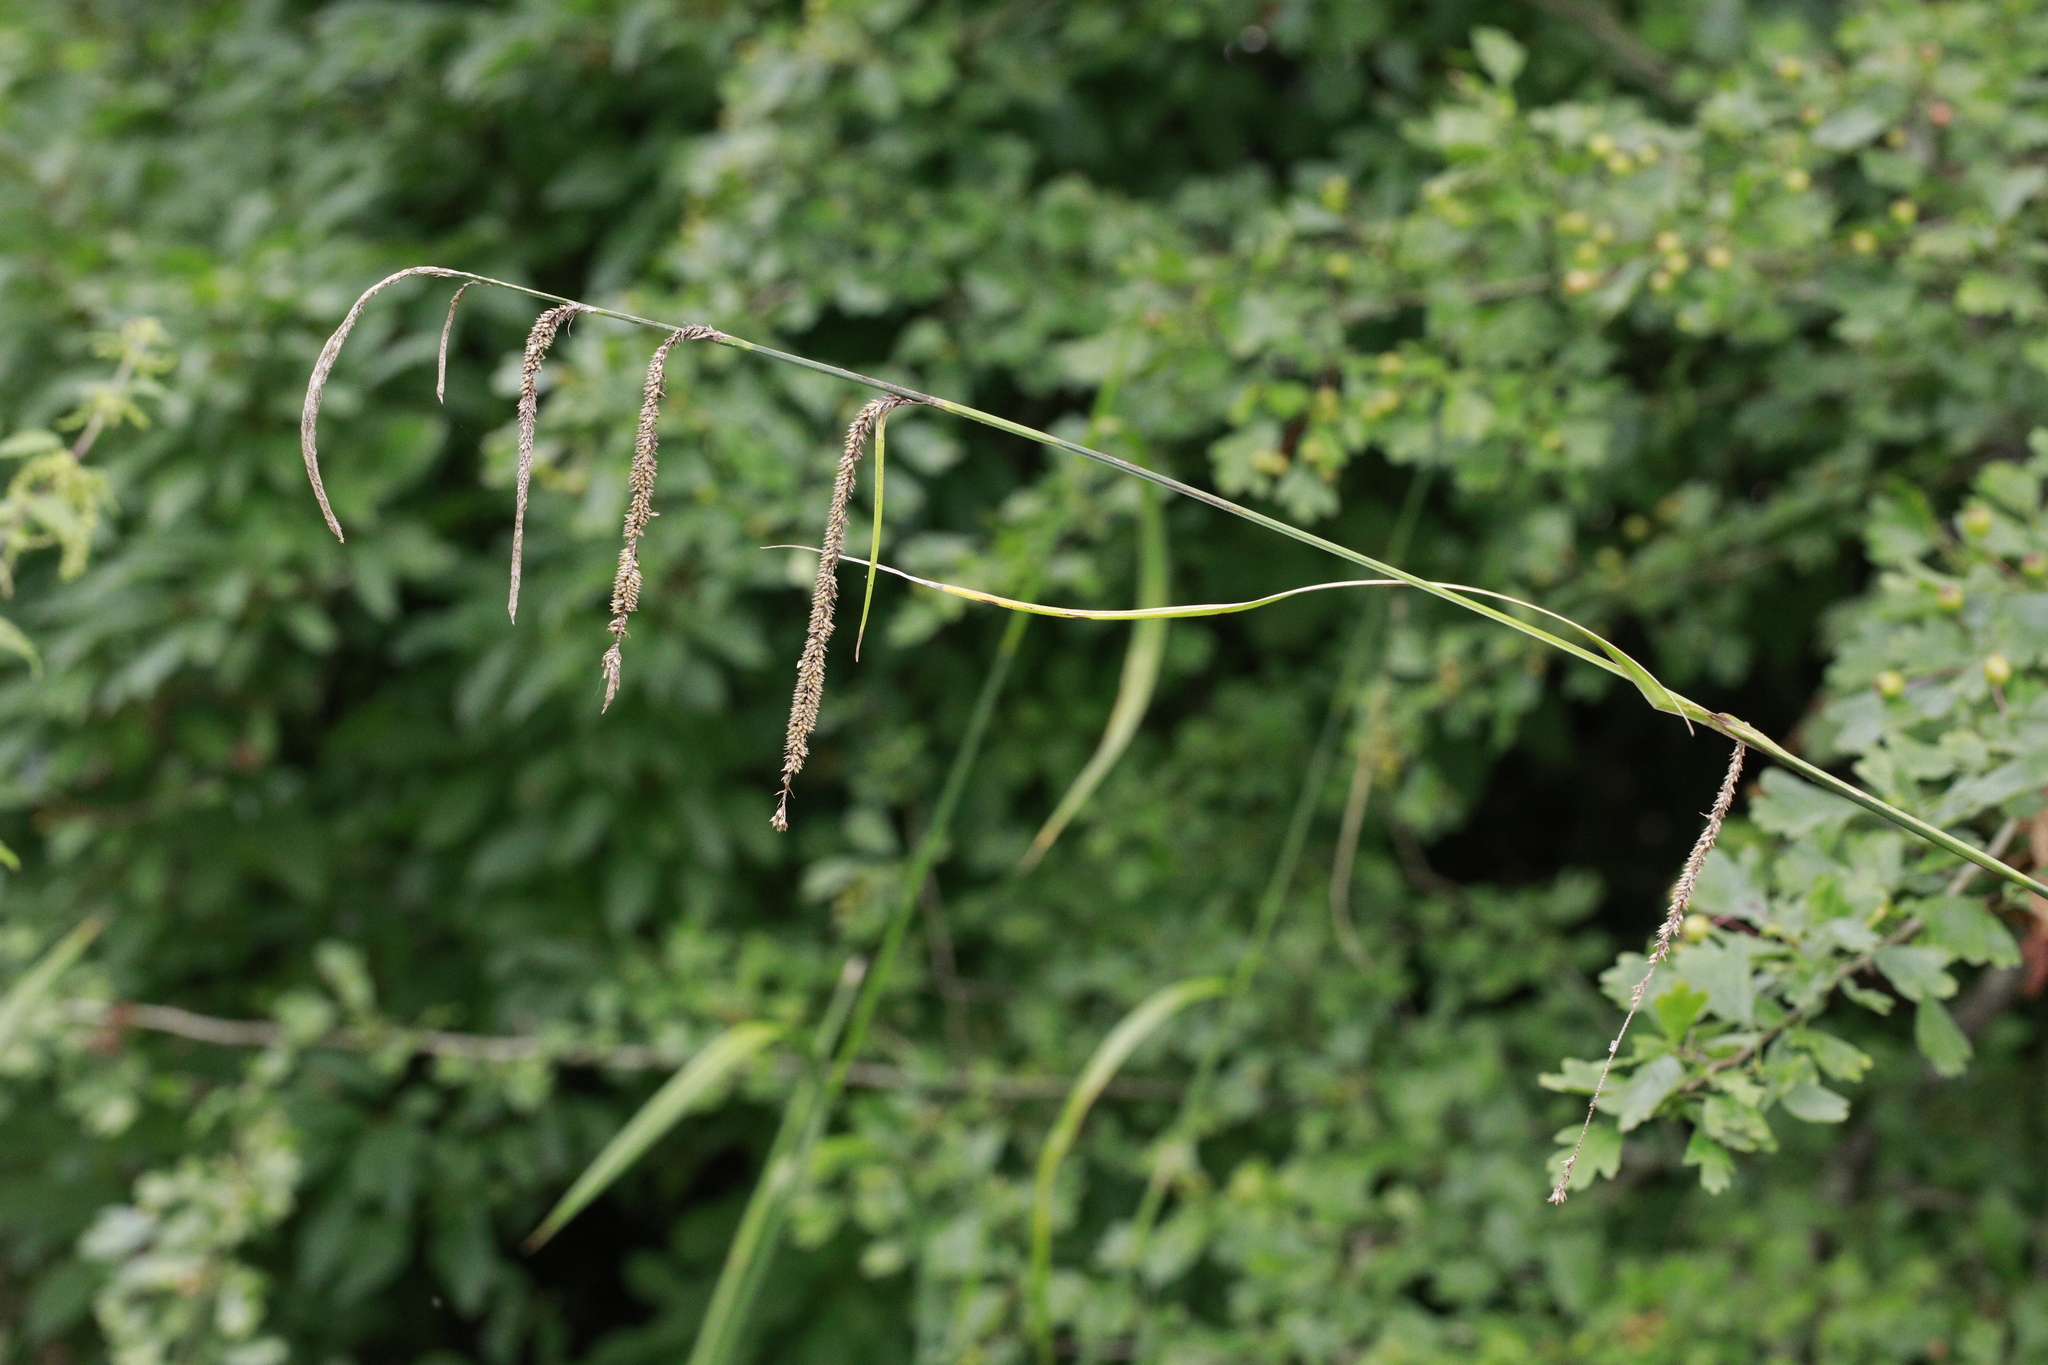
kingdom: Plantae
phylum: Tracheophyta
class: Liliopsida
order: Poales
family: Cyperaceae
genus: Carex
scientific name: Carex pendula
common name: Pendulous sedge
